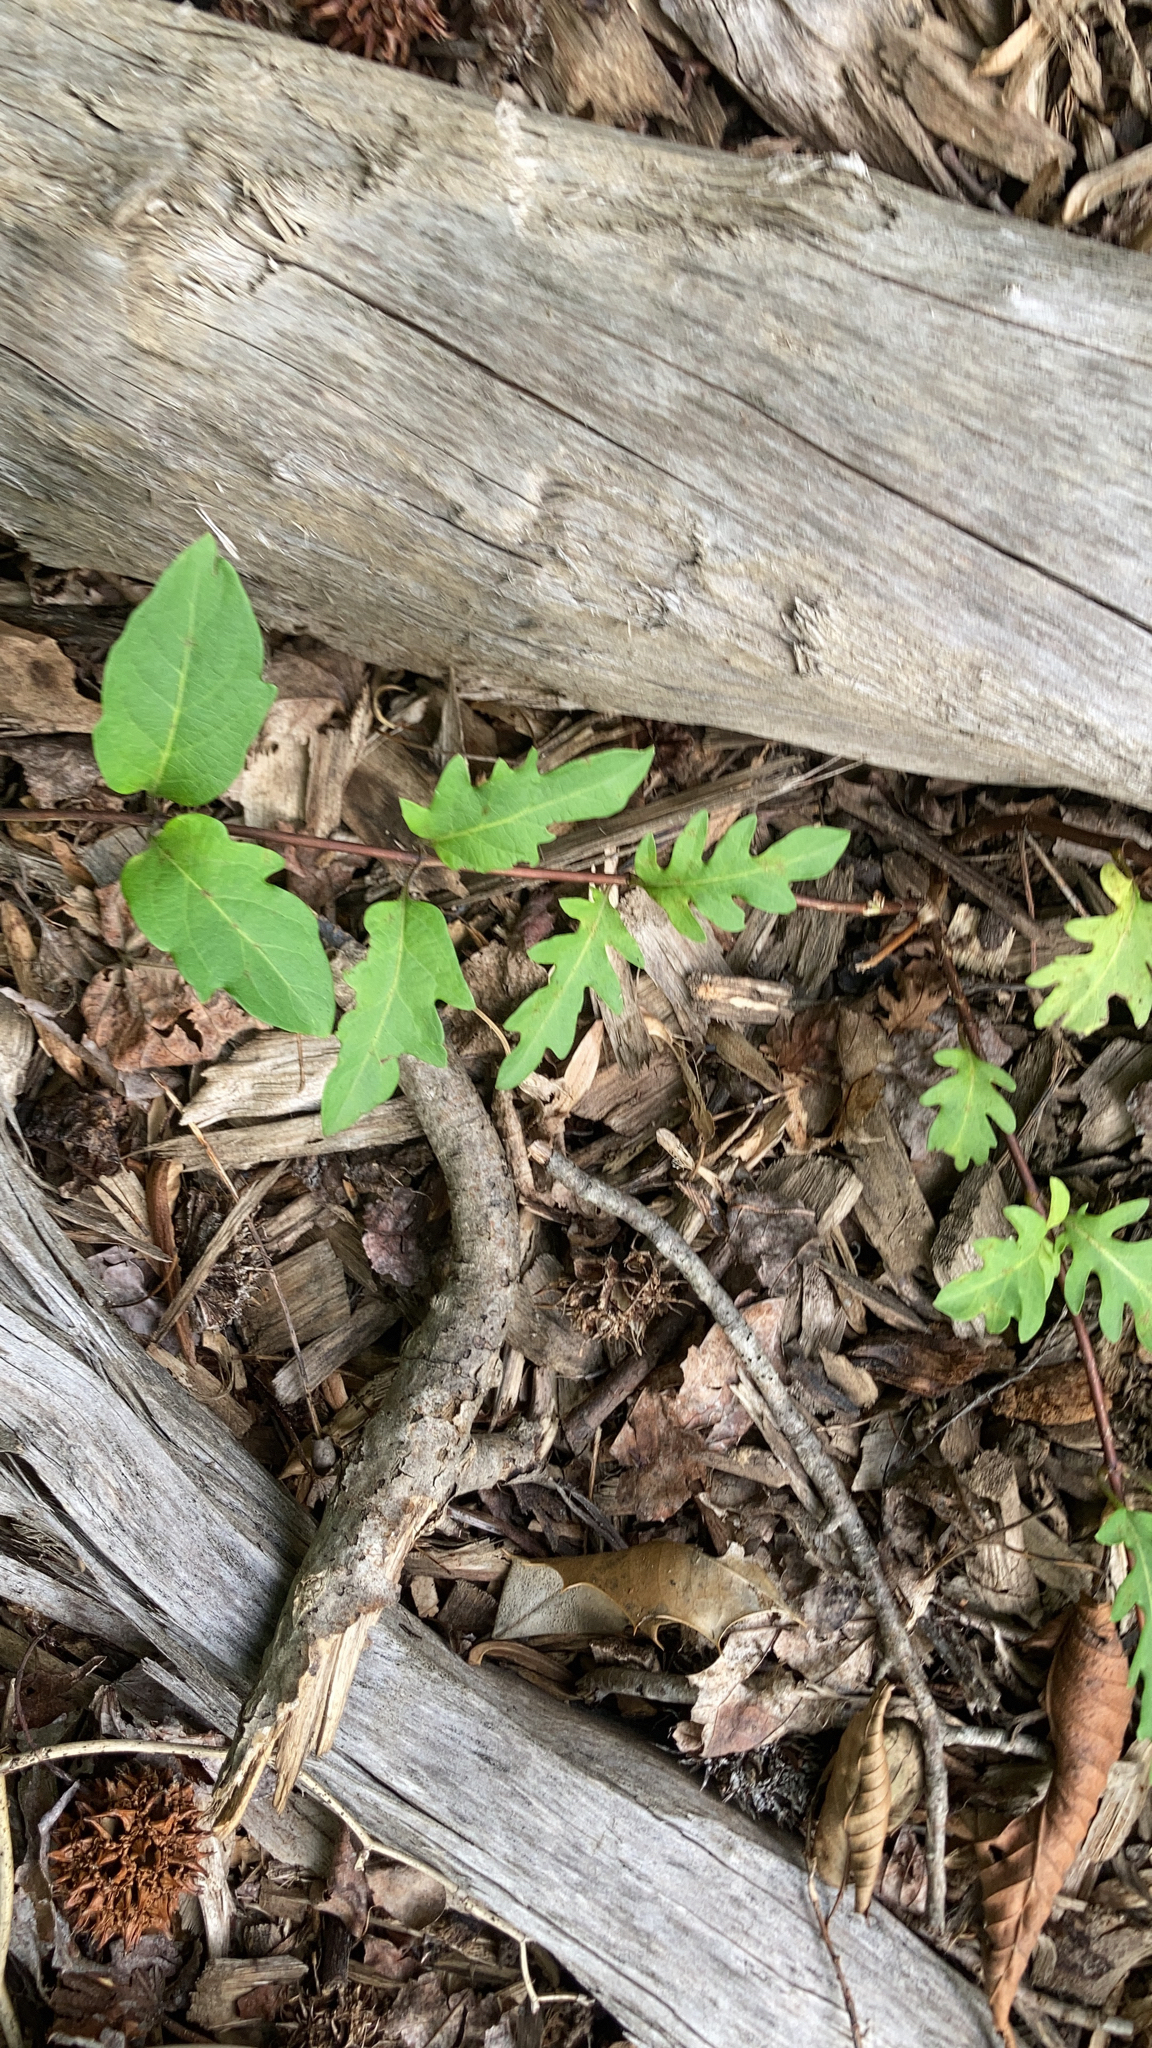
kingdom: Plantae
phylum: Tracheophyta
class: Magnoliopsida
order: Dipsacales
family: Caprifoliaceae
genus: Lonicera
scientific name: Lonicera japonica
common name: Japanese honeysuckle
